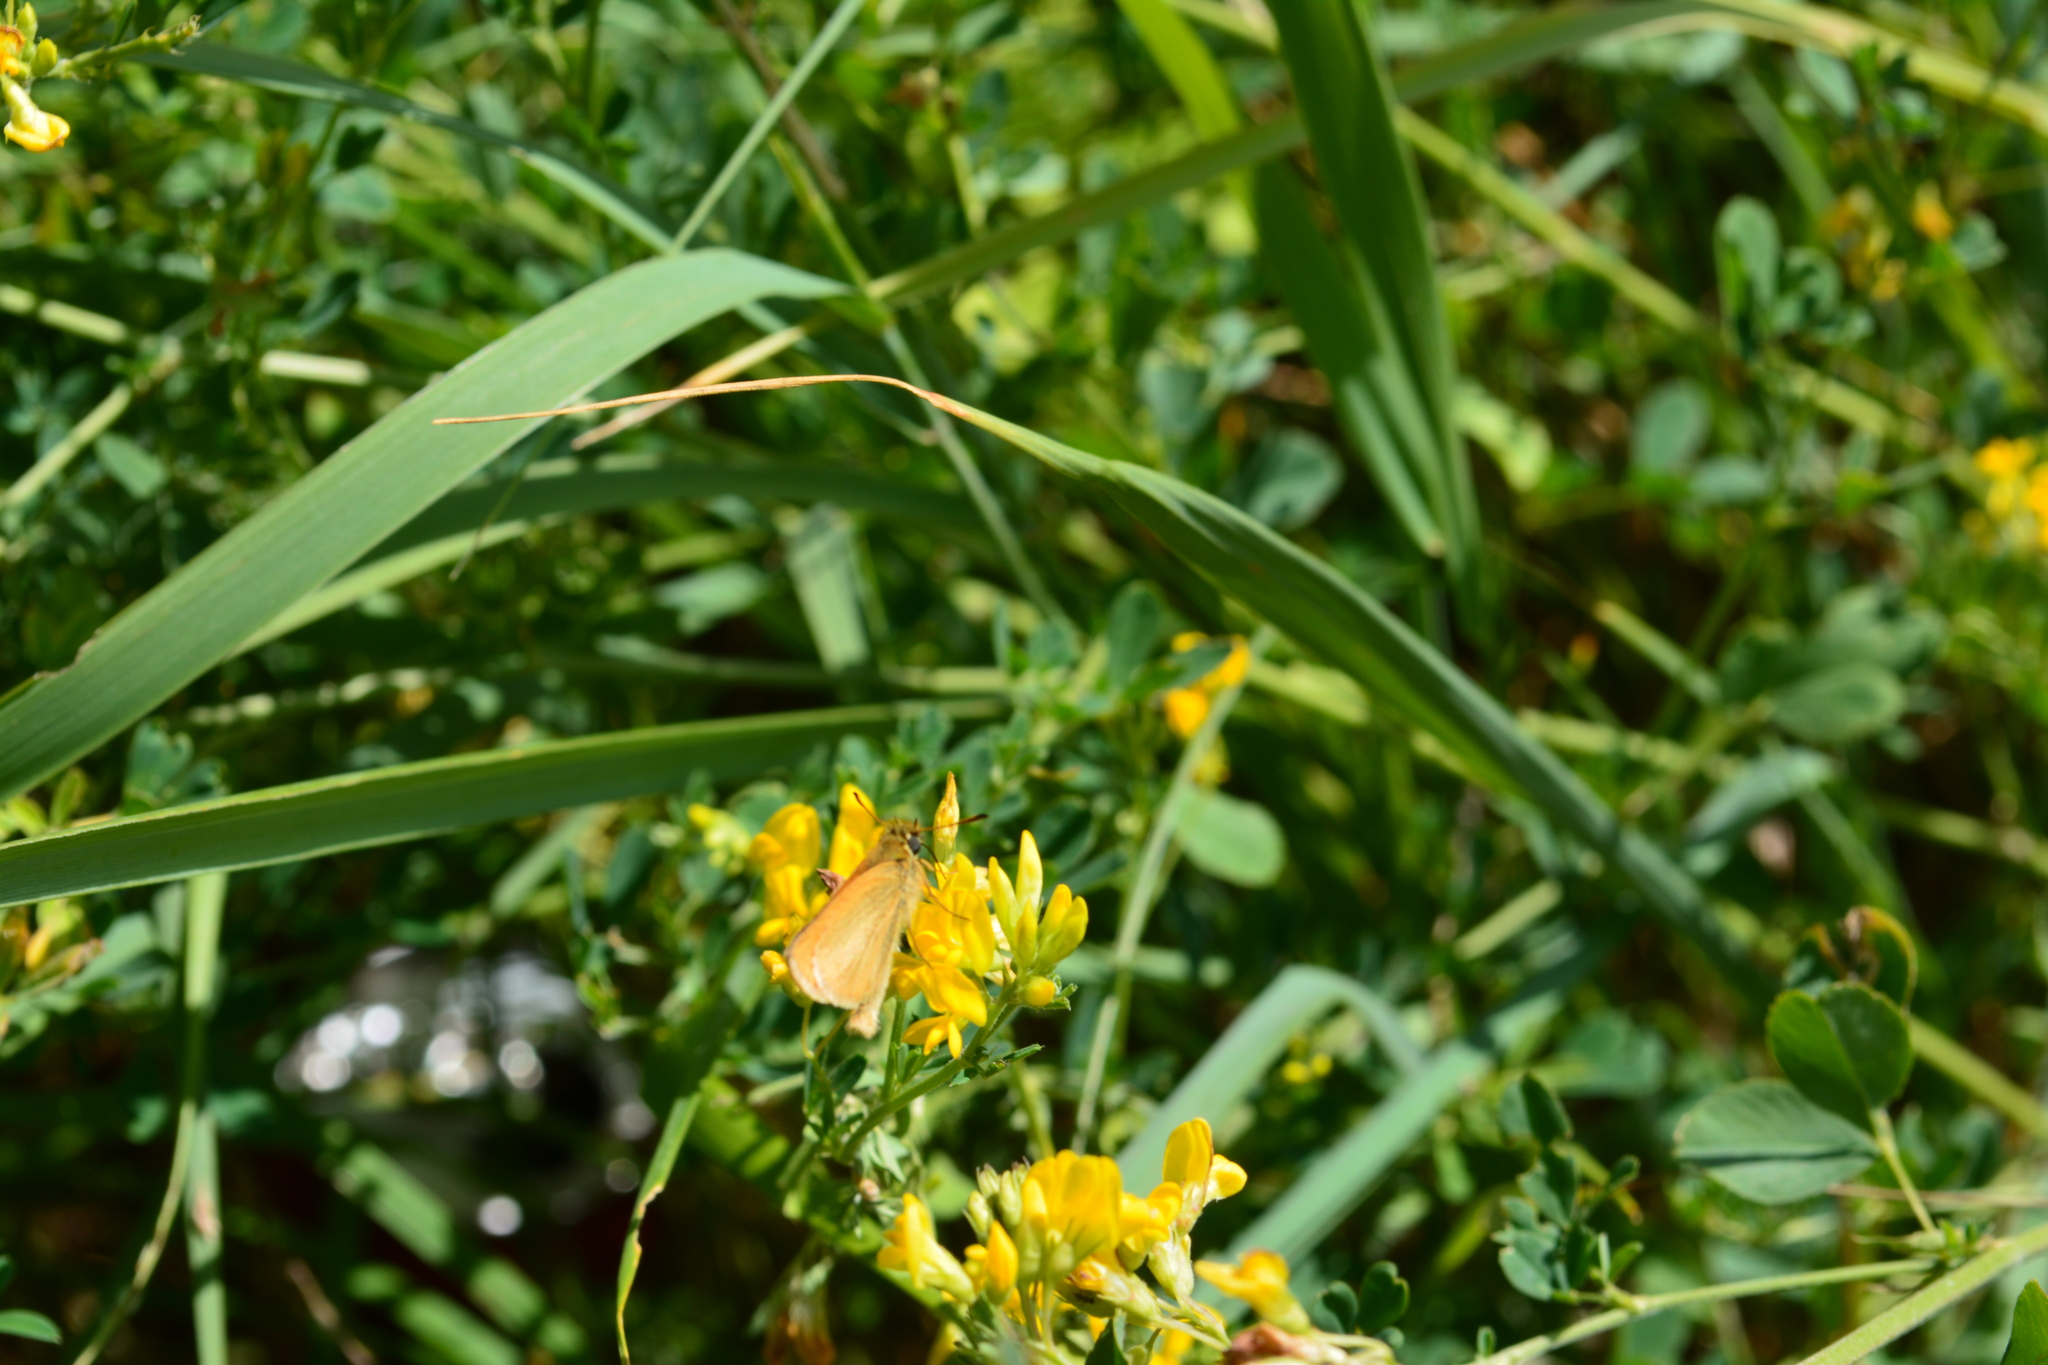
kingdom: Animalia
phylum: Arthropoda
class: Insecta
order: Lepidoptera
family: Hesperiidae
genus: Thymelicus
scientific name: Thymelicus lineola
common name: Essex skipper
